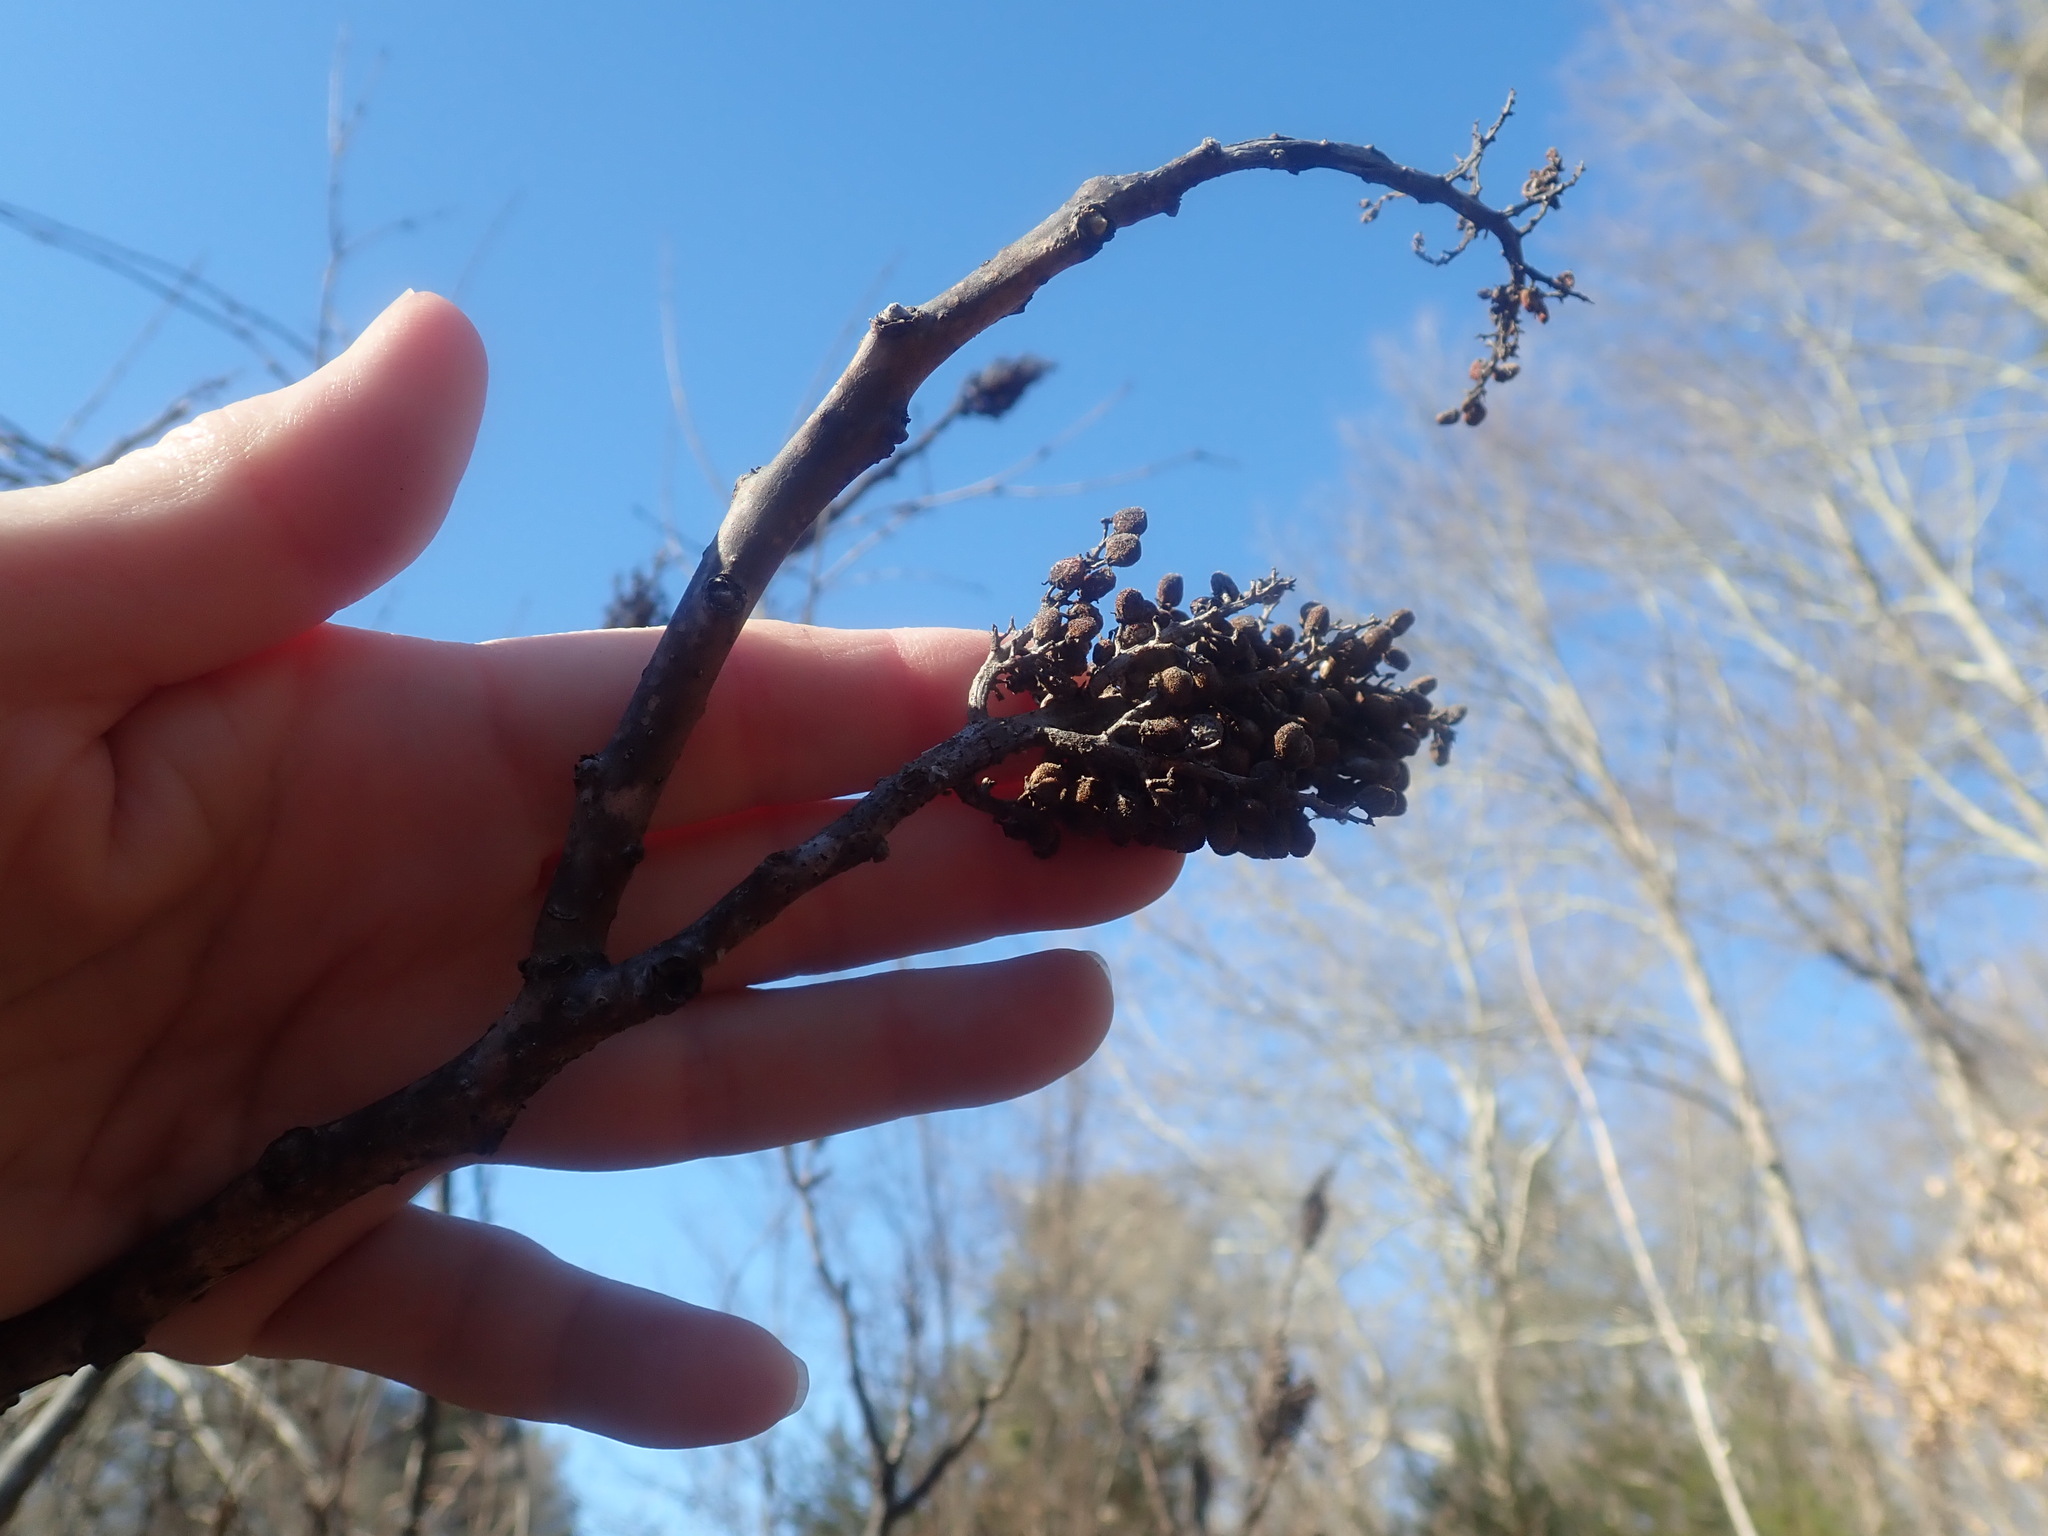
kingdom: Plantae
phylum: Tracheophyta
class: Magnoliopsida
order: Sapindales
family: Anacardiaceae
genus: Rhus
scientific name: Rhus glabra
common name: Scarlet sumac
